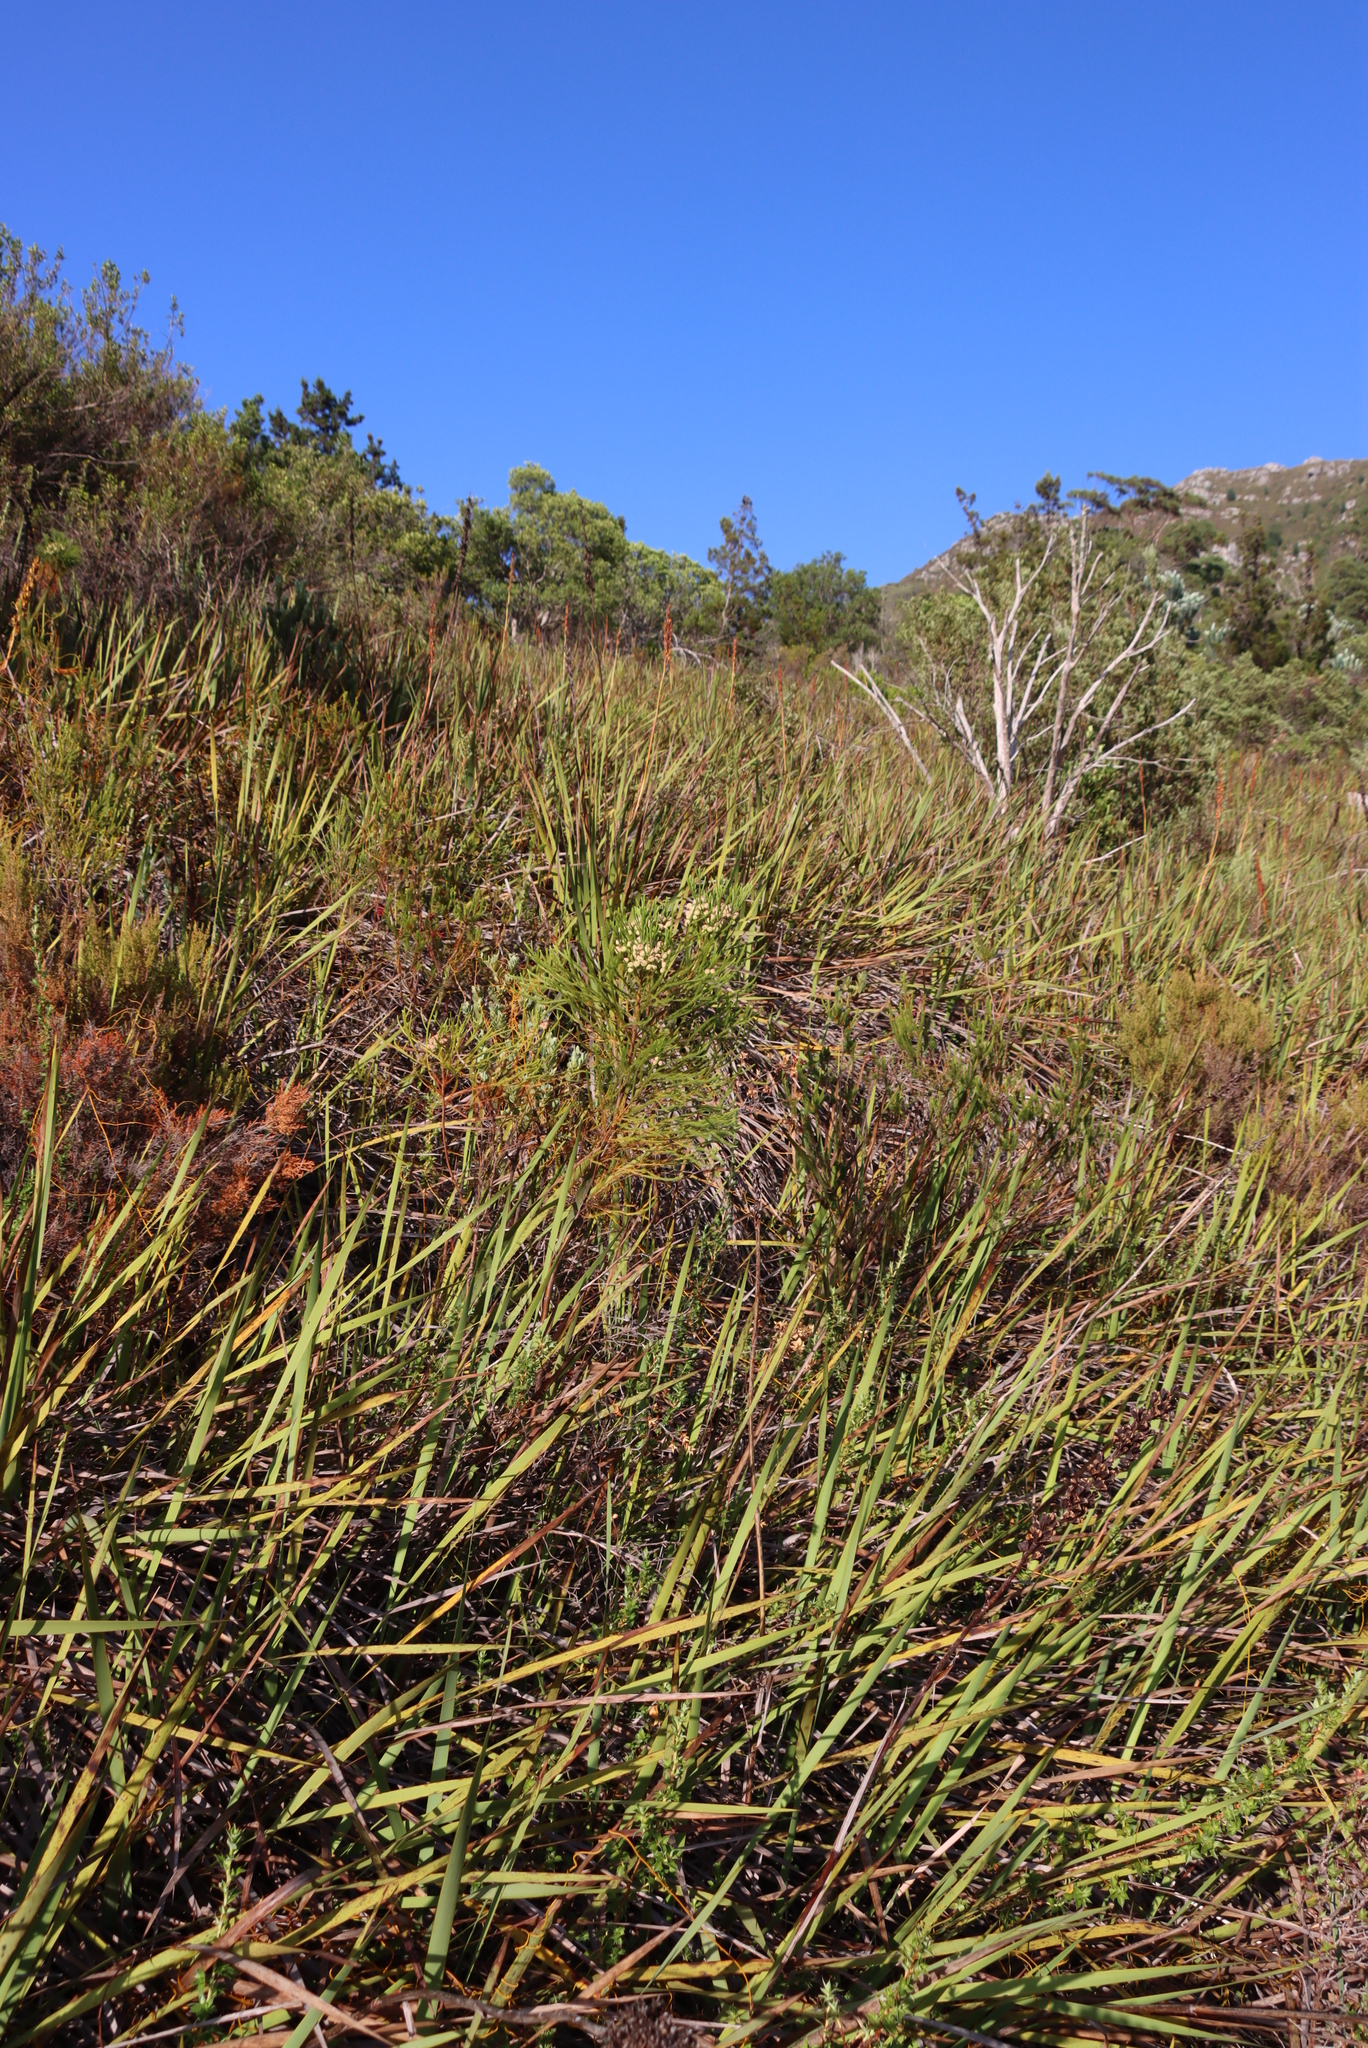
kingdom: Plantae
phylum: Tracheophyta
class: Magnoliopsida
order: Bruniales
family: Bruniaceae
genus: Berzelia
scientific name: Berzelia lanuginosa
